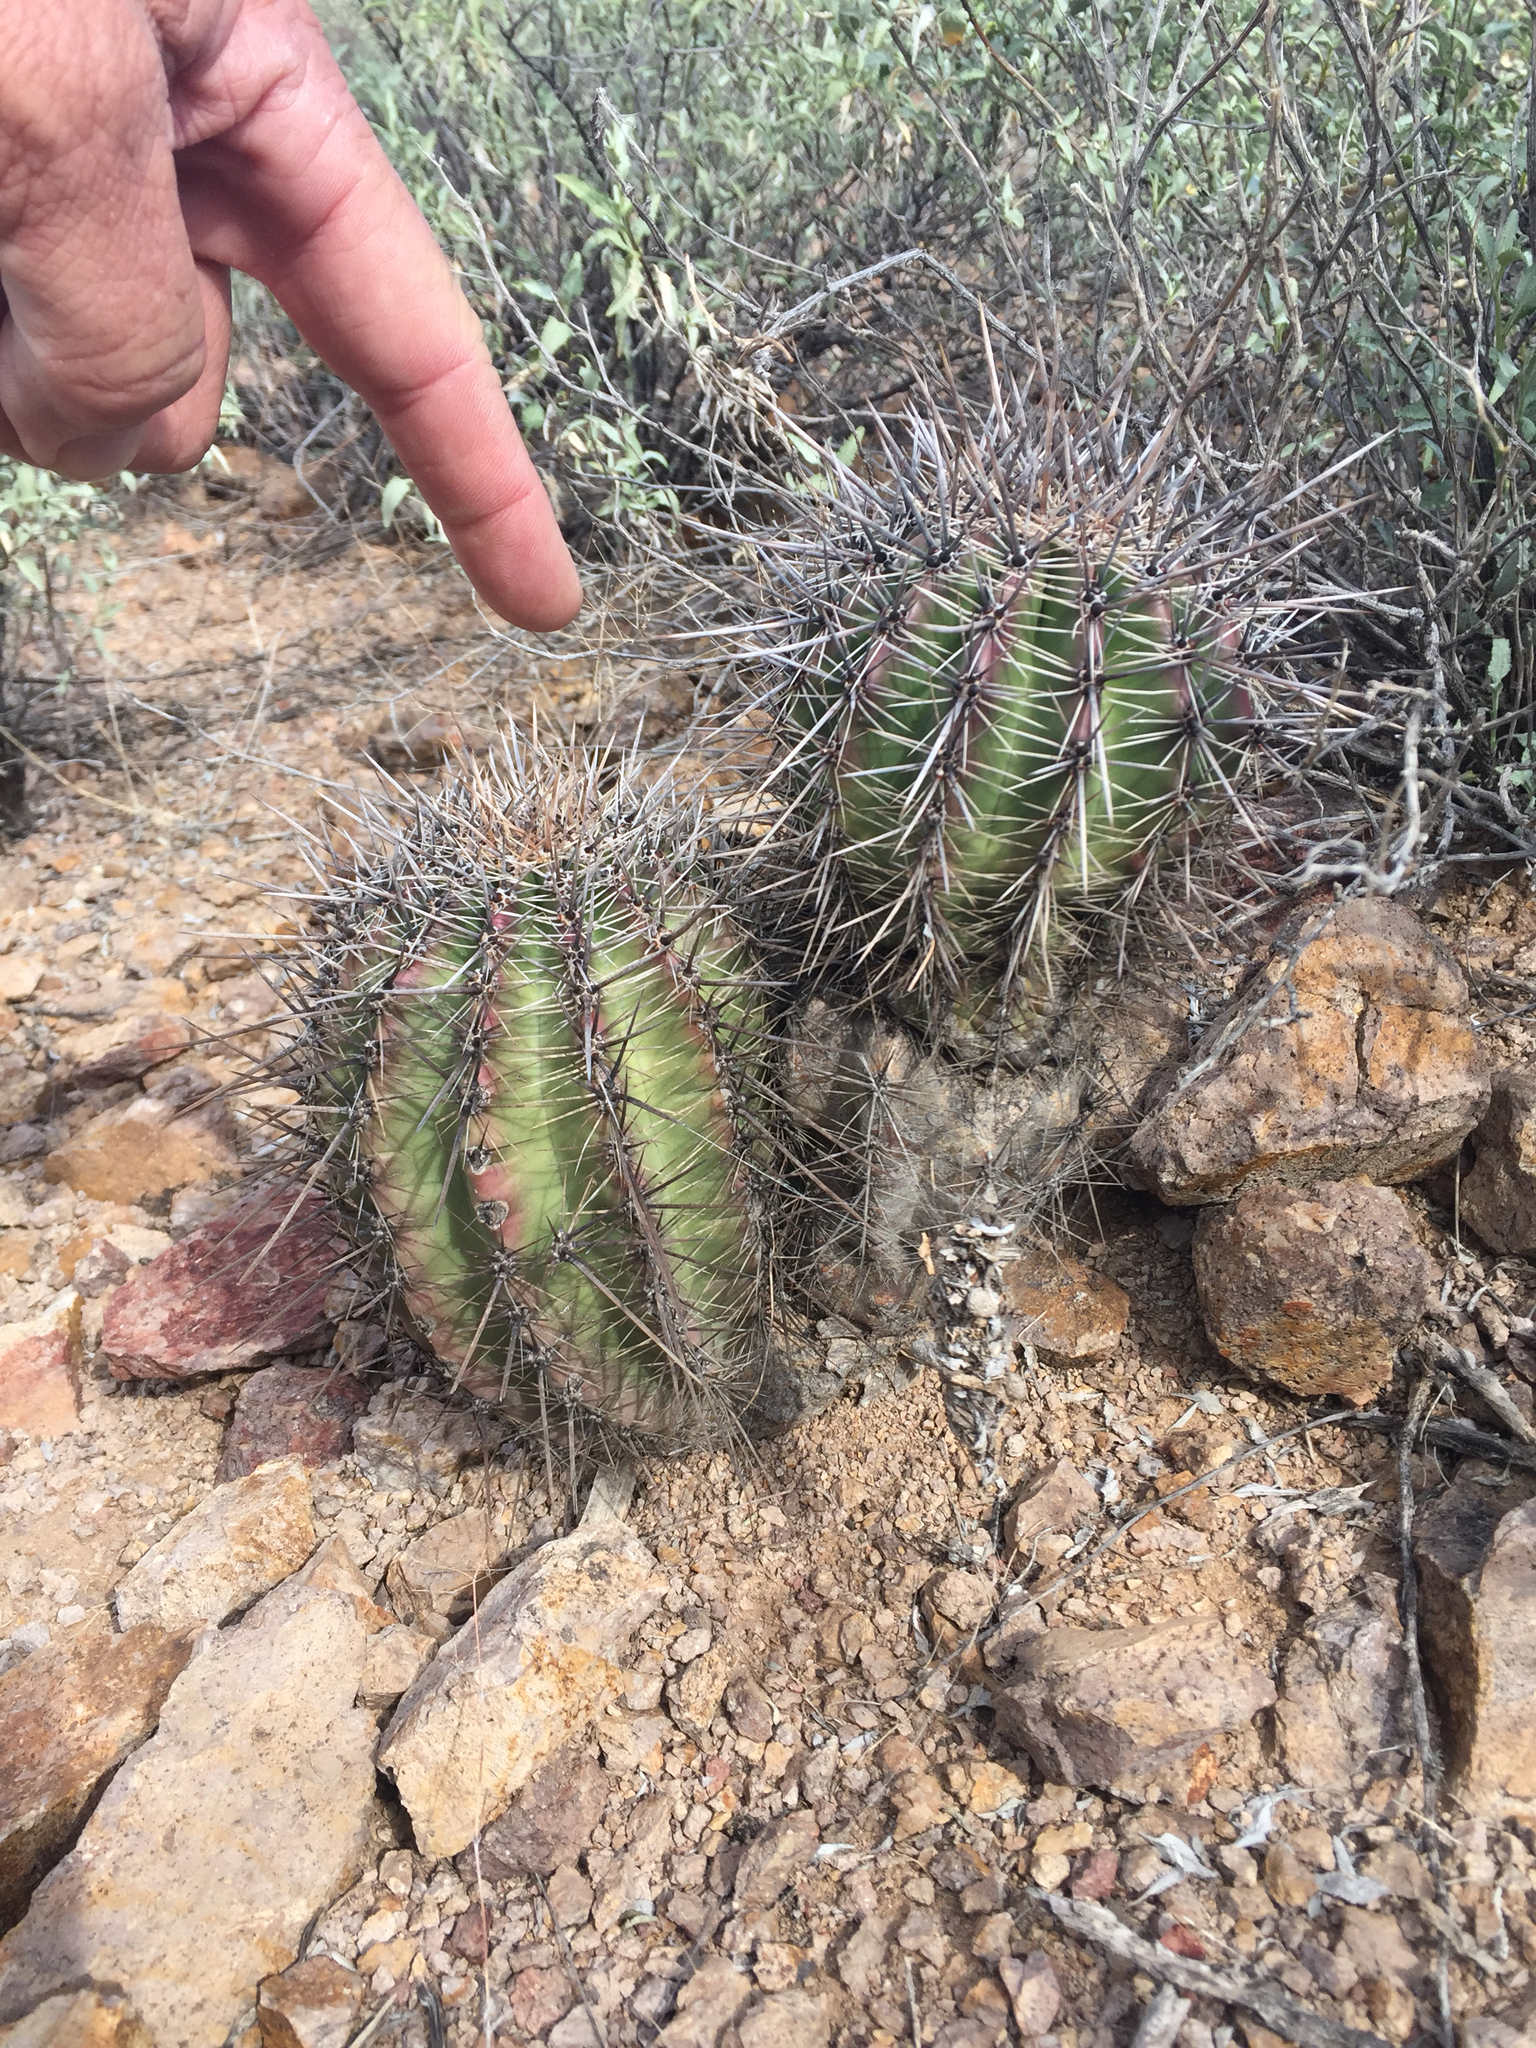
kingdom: Plantae
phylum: Tracheophyta
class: Magnoliopsida
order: Caryophyllales
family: Cactaceae
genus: Carnegiea
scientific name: Carnegiea gigantea
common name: Saguaro
